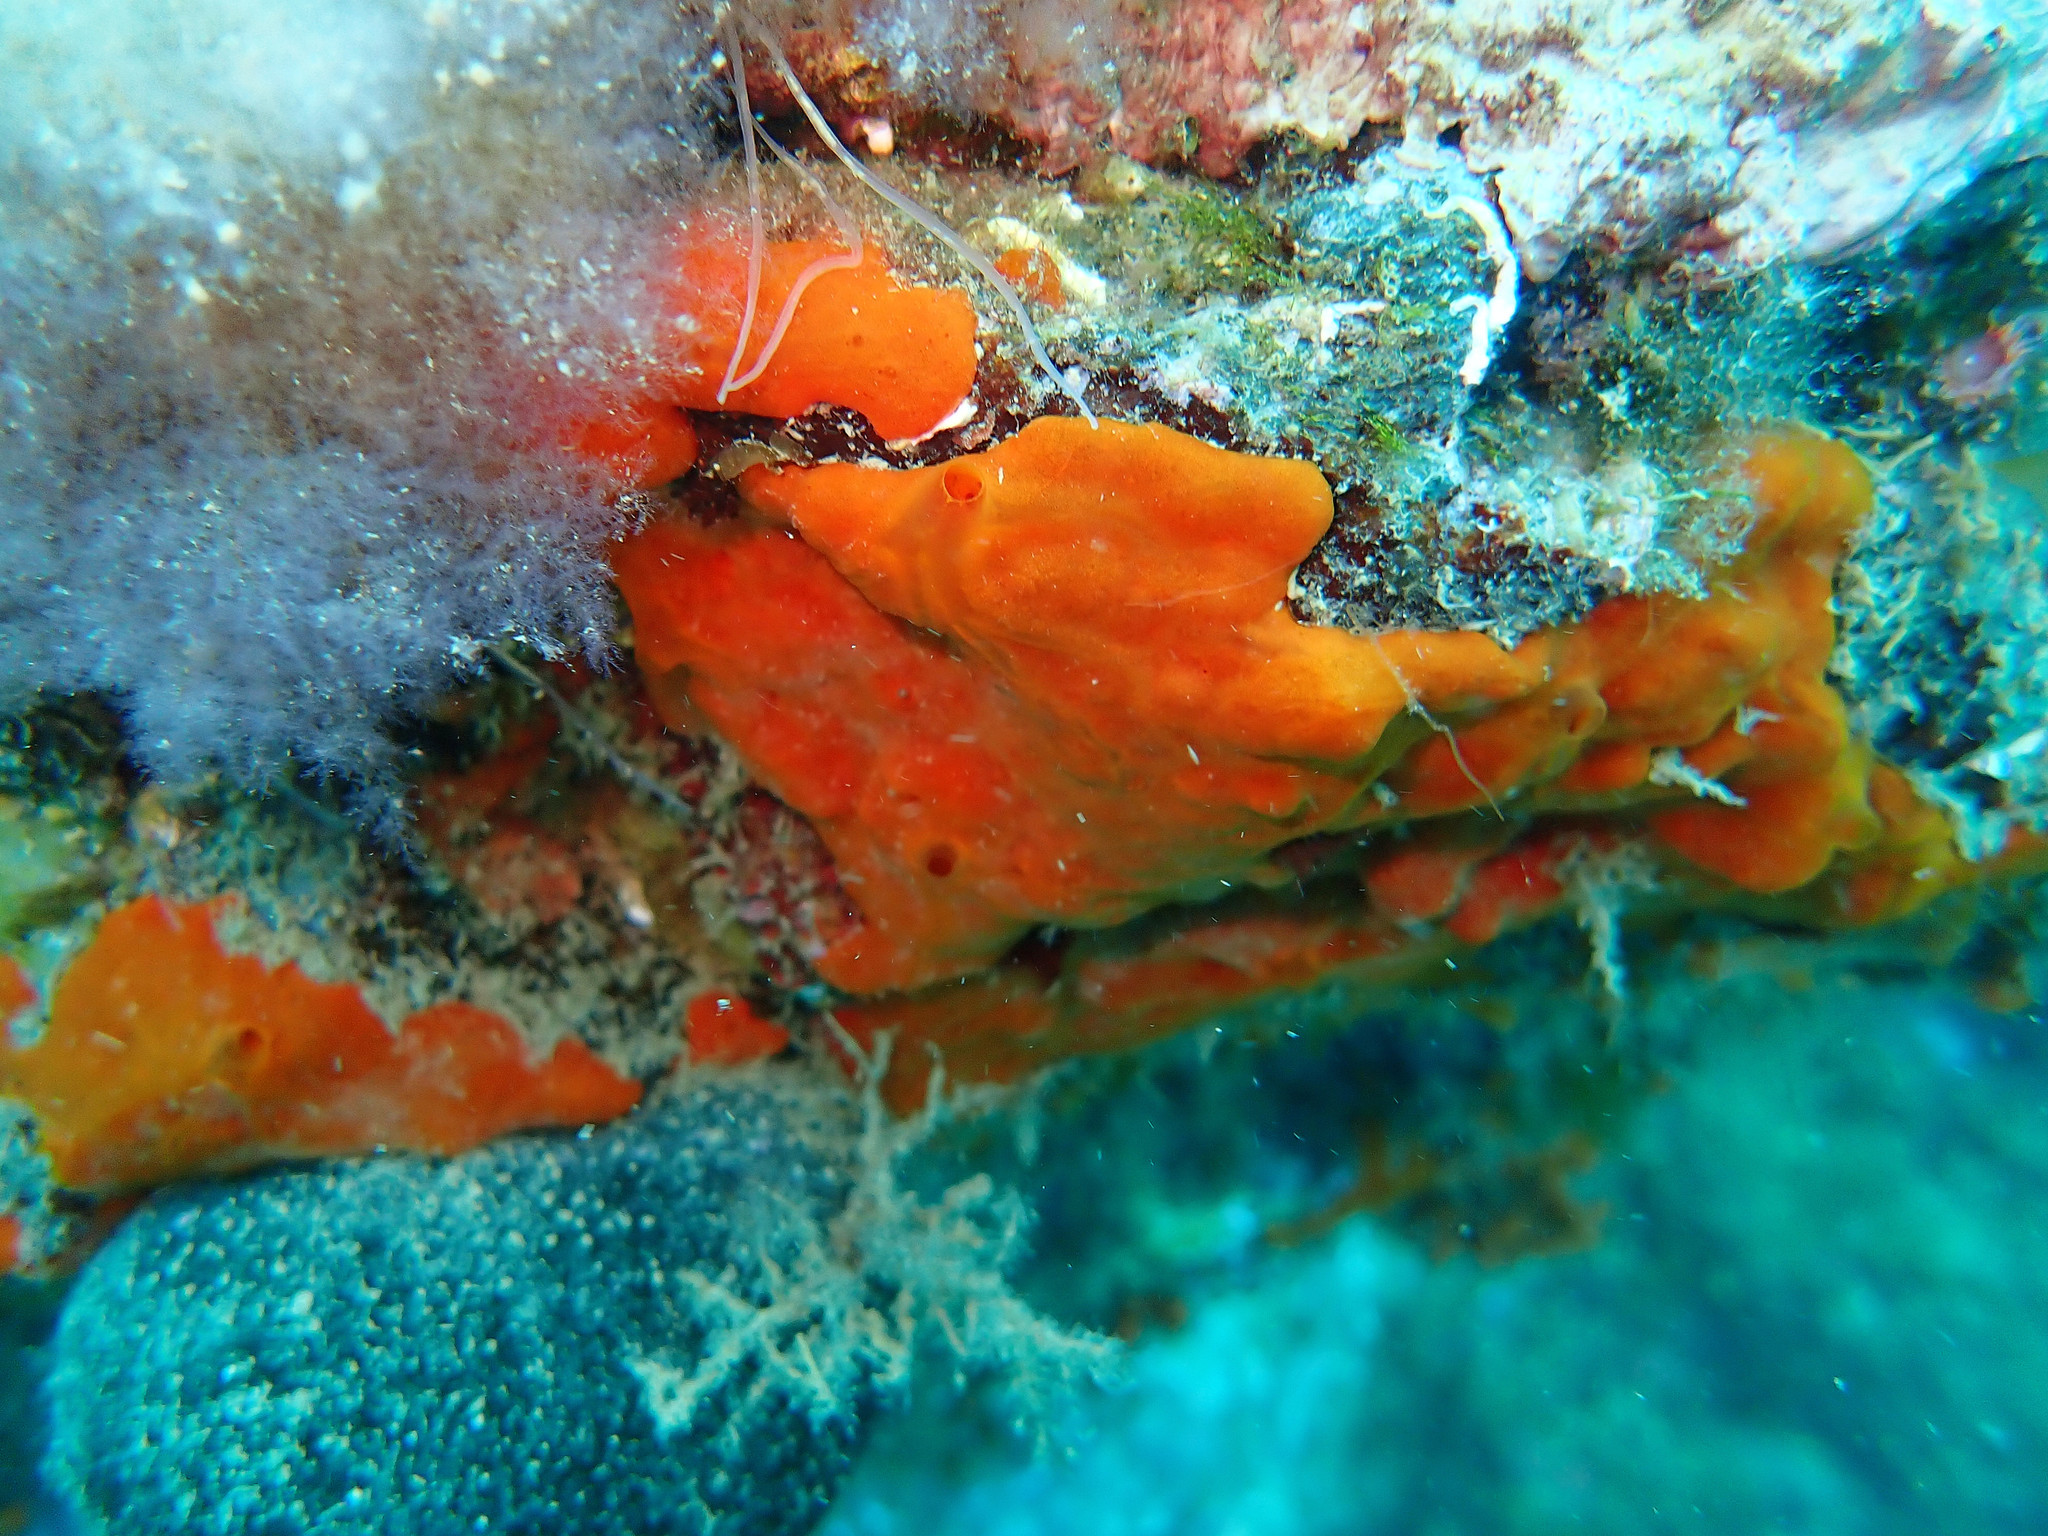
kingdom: Animalia
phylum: Porifera
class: Demospongiae
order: Poecilosclerida
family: Crambeidae
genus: Crambe
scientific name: Crambe crambe
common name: Orange-red encrusting sponge
